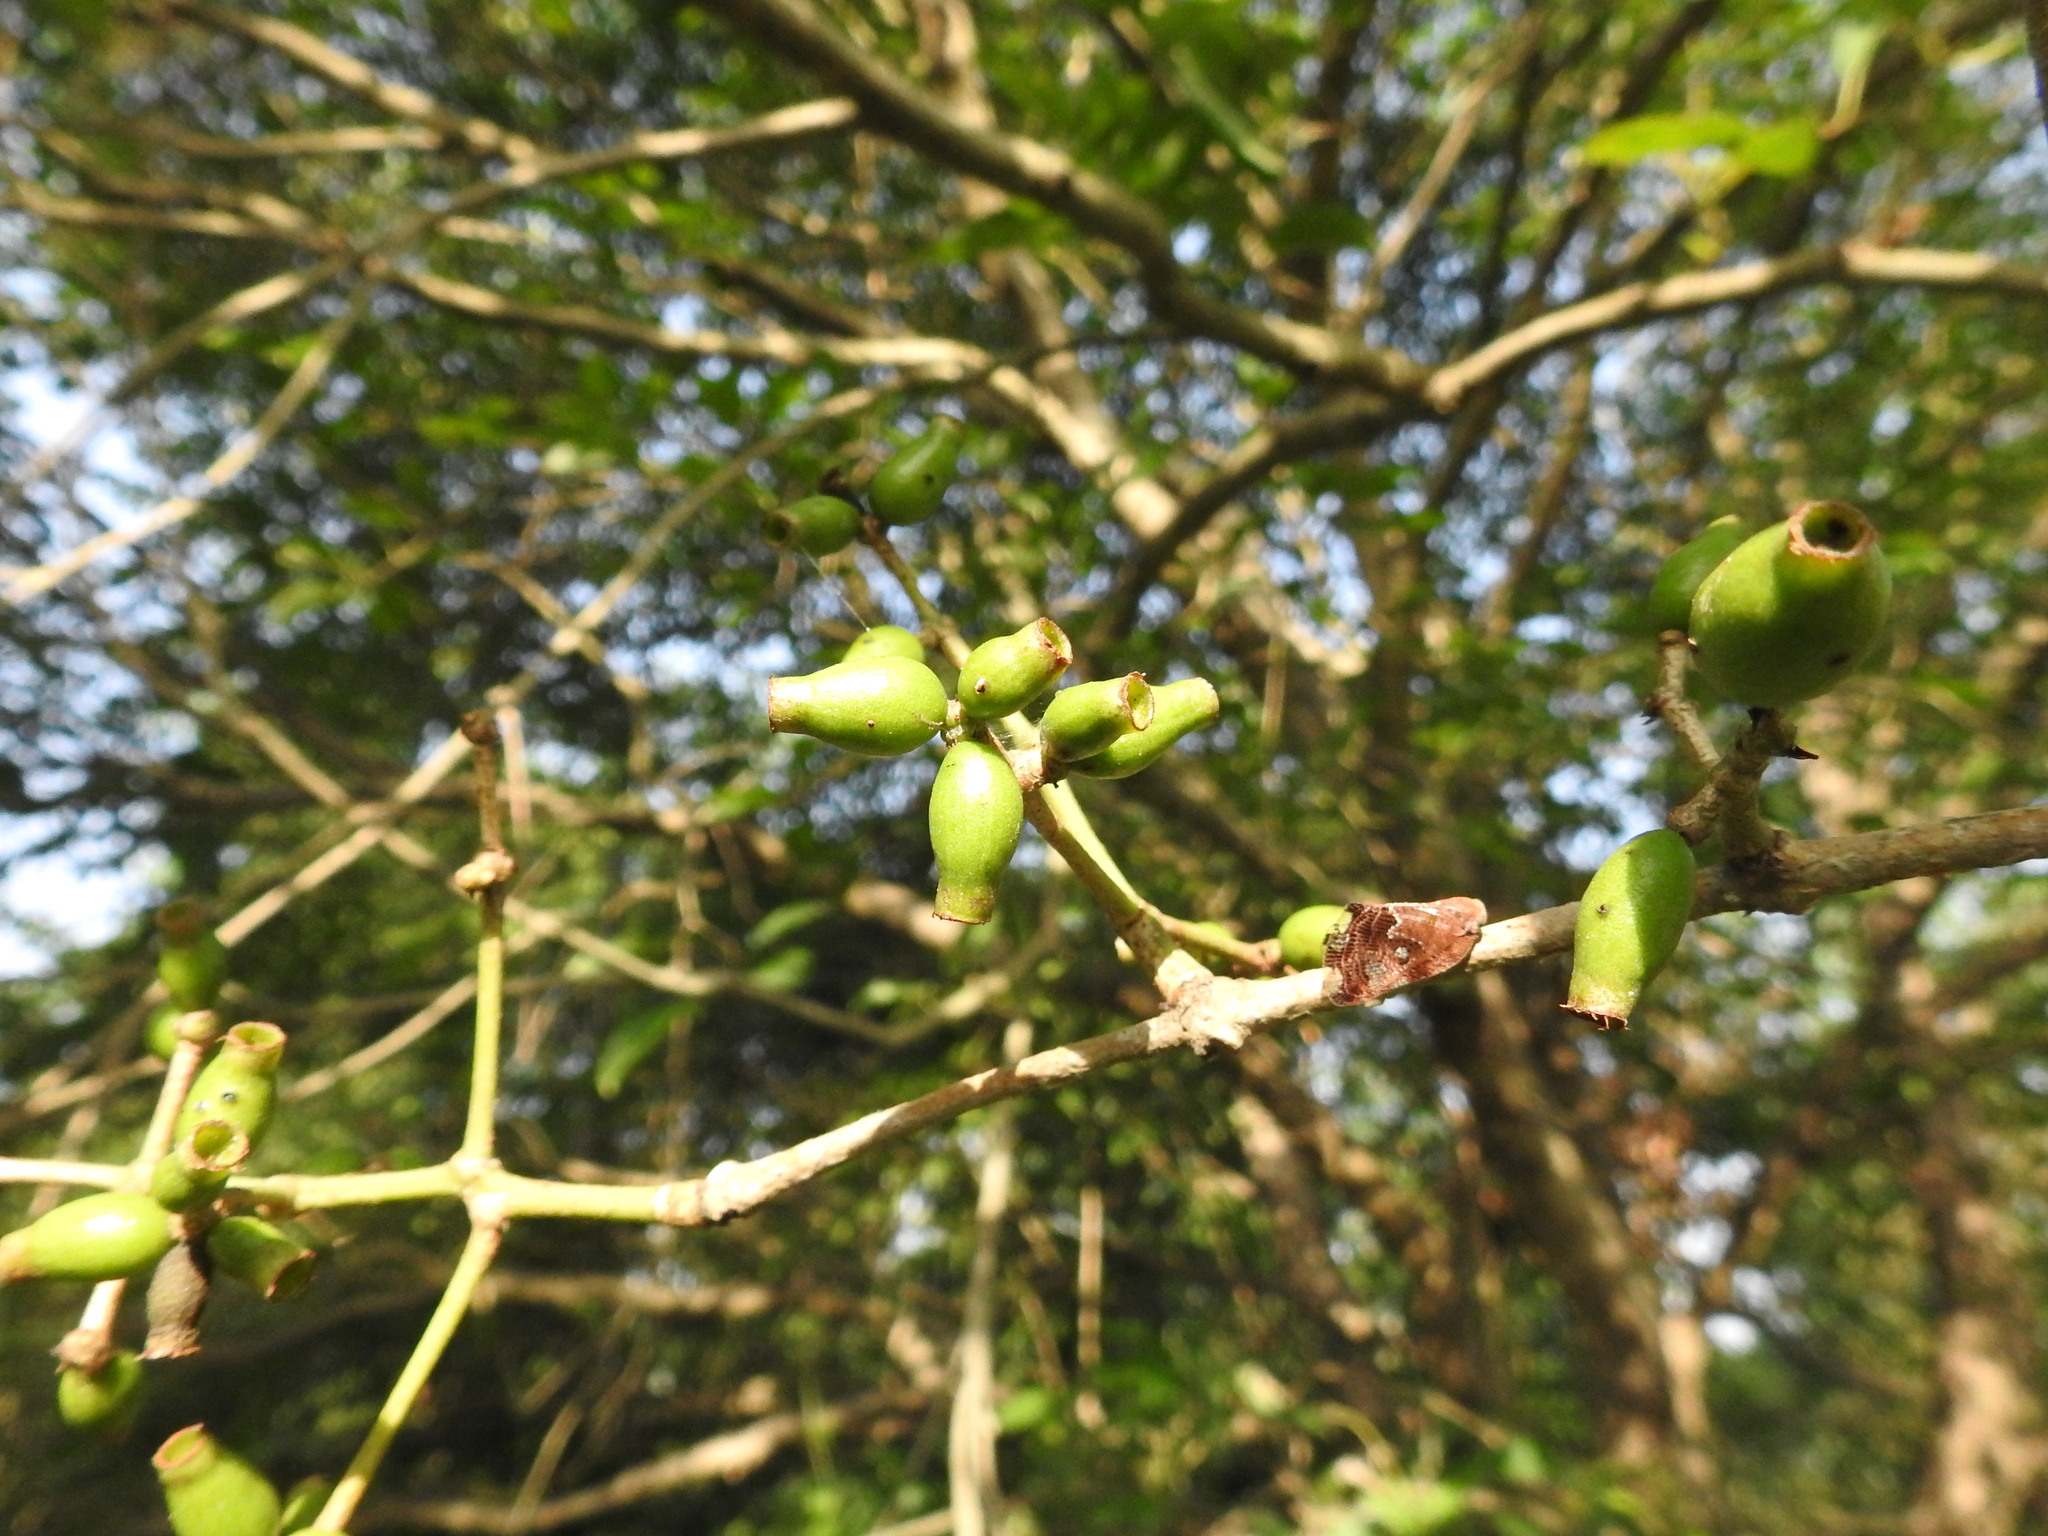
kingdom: Plantae
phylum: Tracheophyta
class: Magnoliopsida
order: Myrtales
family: Myrtaceae
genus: Syzygium
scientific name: Syzygium cumini
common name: Java plum
